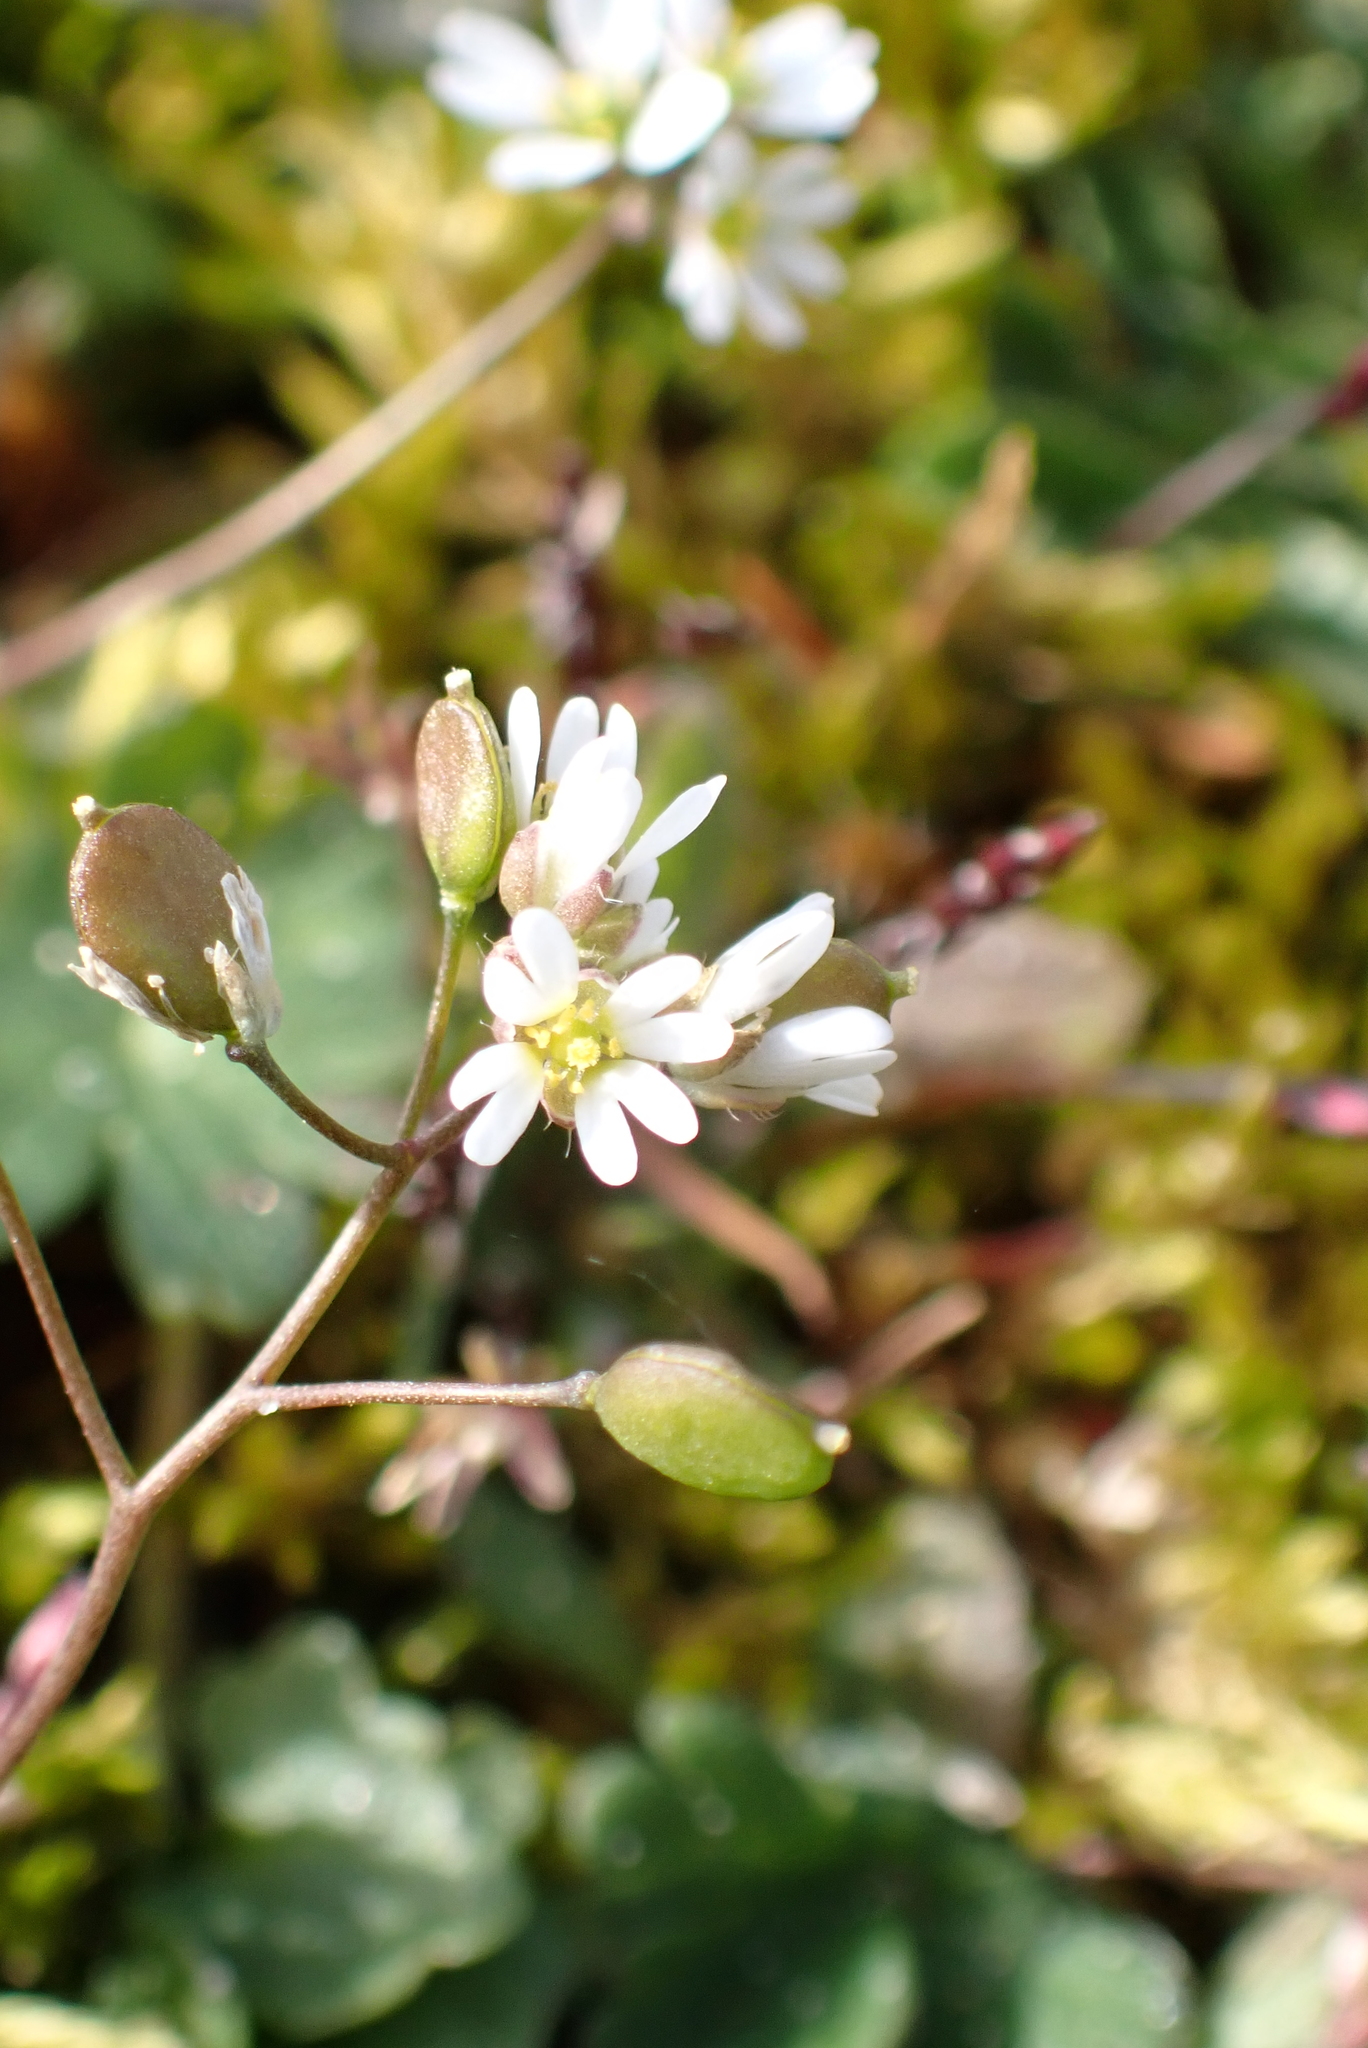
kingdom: Plantae
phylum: Tracheophyta
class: Magnoliopsida
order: Brassicales
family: Brassicaceae
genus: Draba
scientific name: Draba verna
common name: Spring draba
